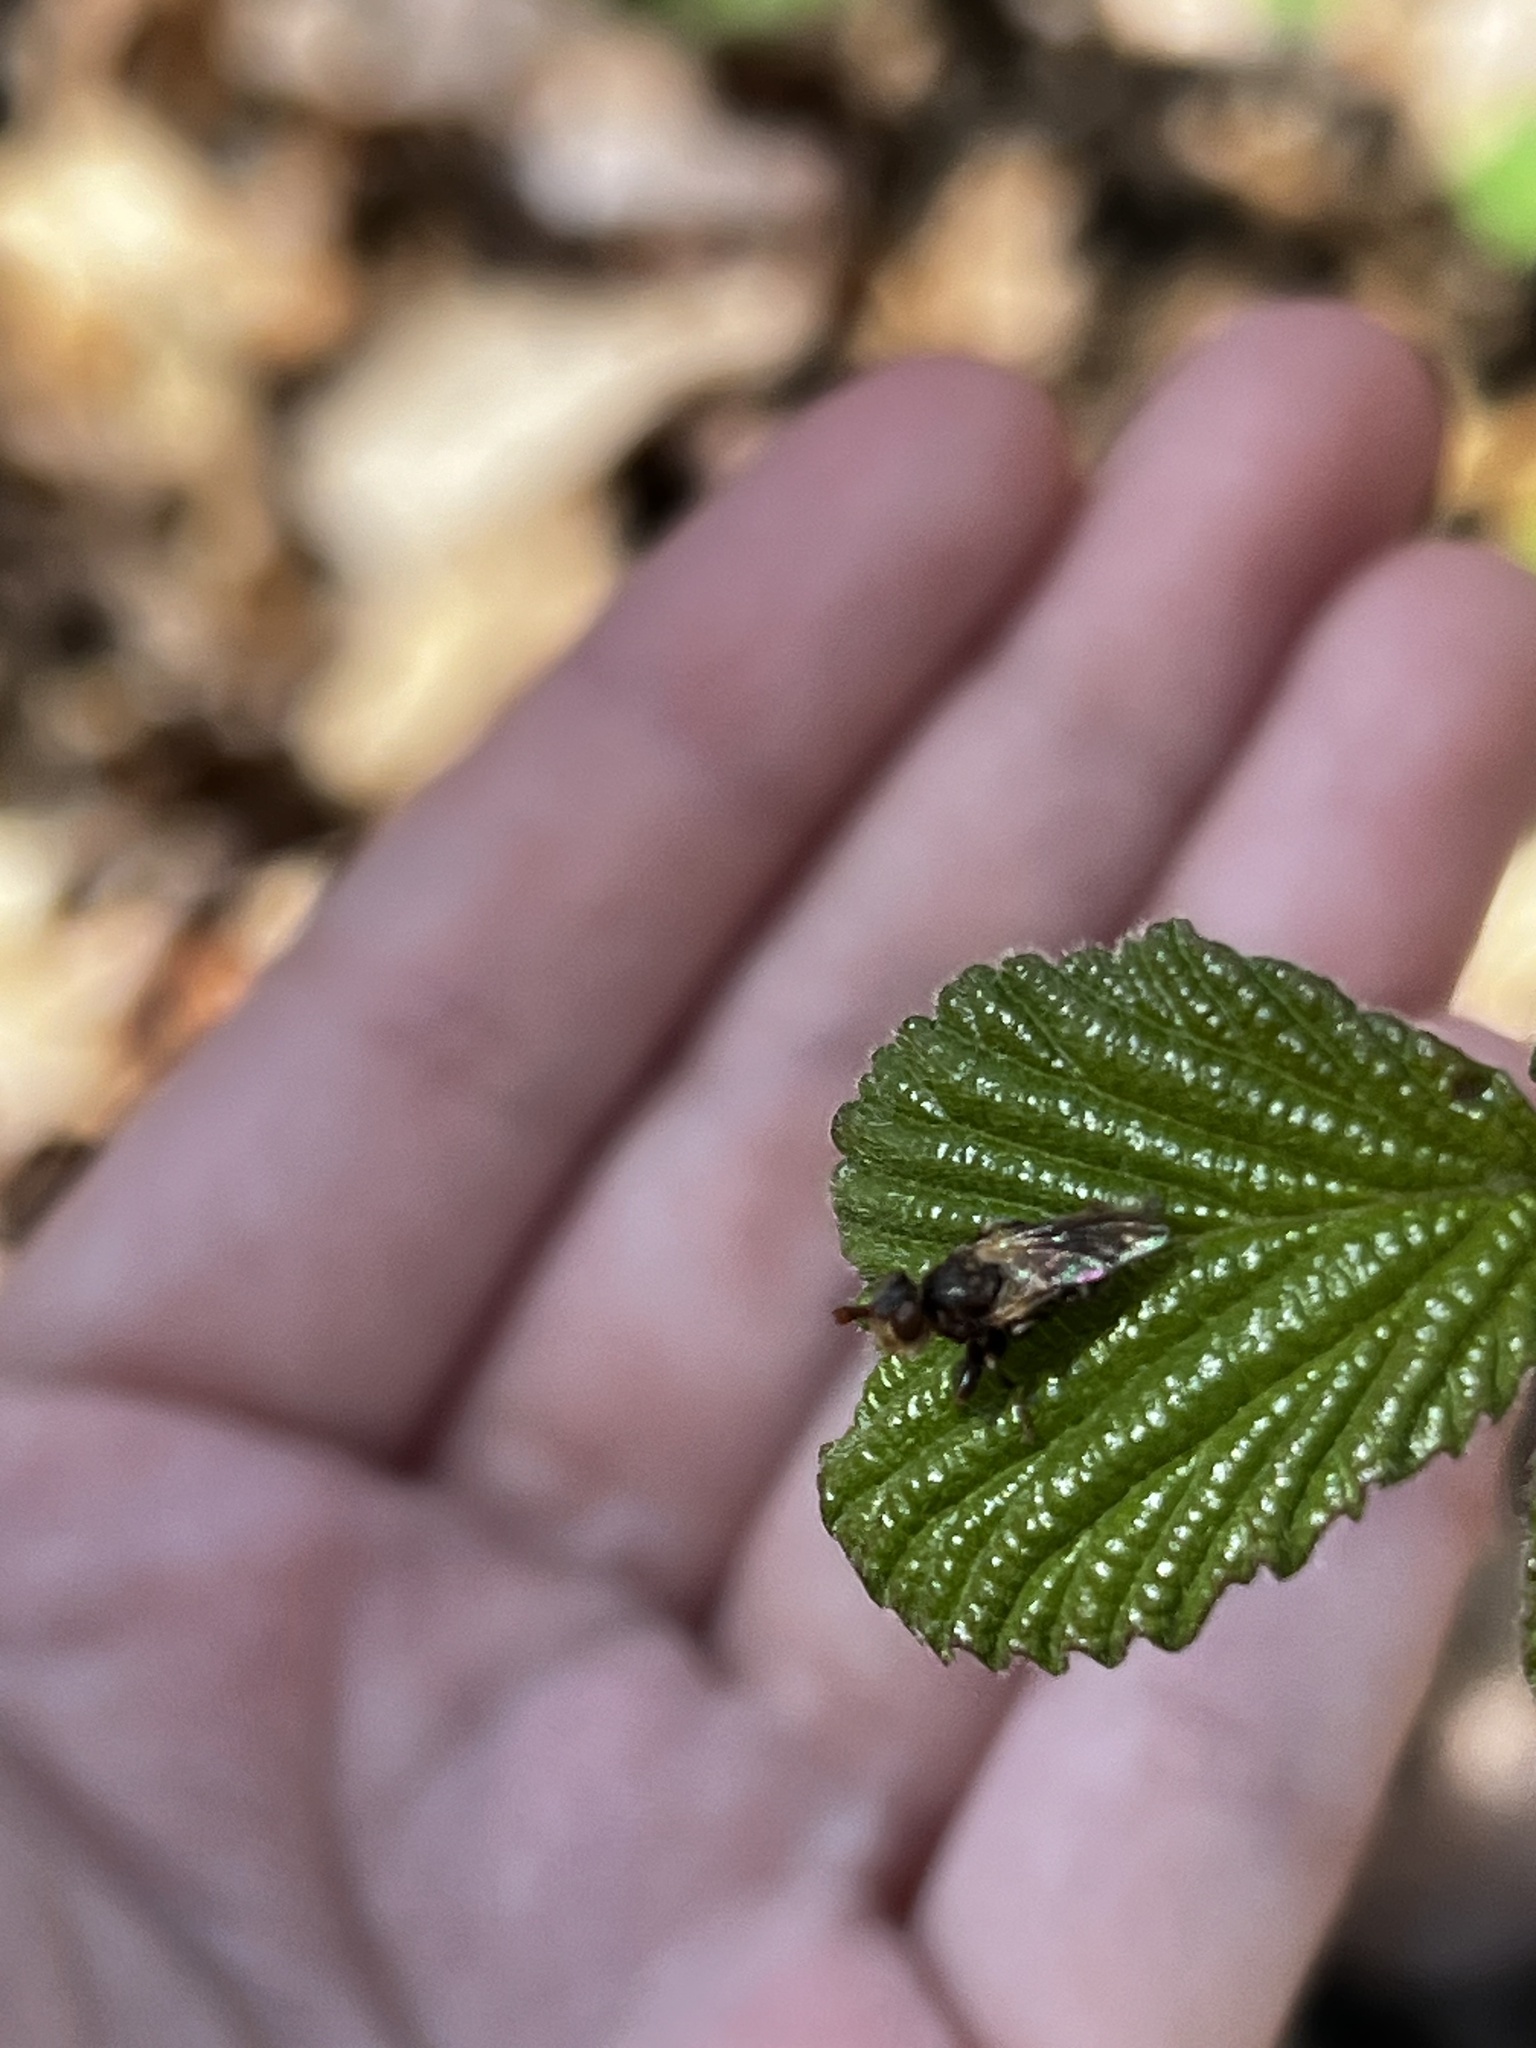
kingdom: Animalia
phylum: Arthropoda
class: Insecta
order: Diptera
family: Conopidae
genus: Myopa
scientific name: Myopa
